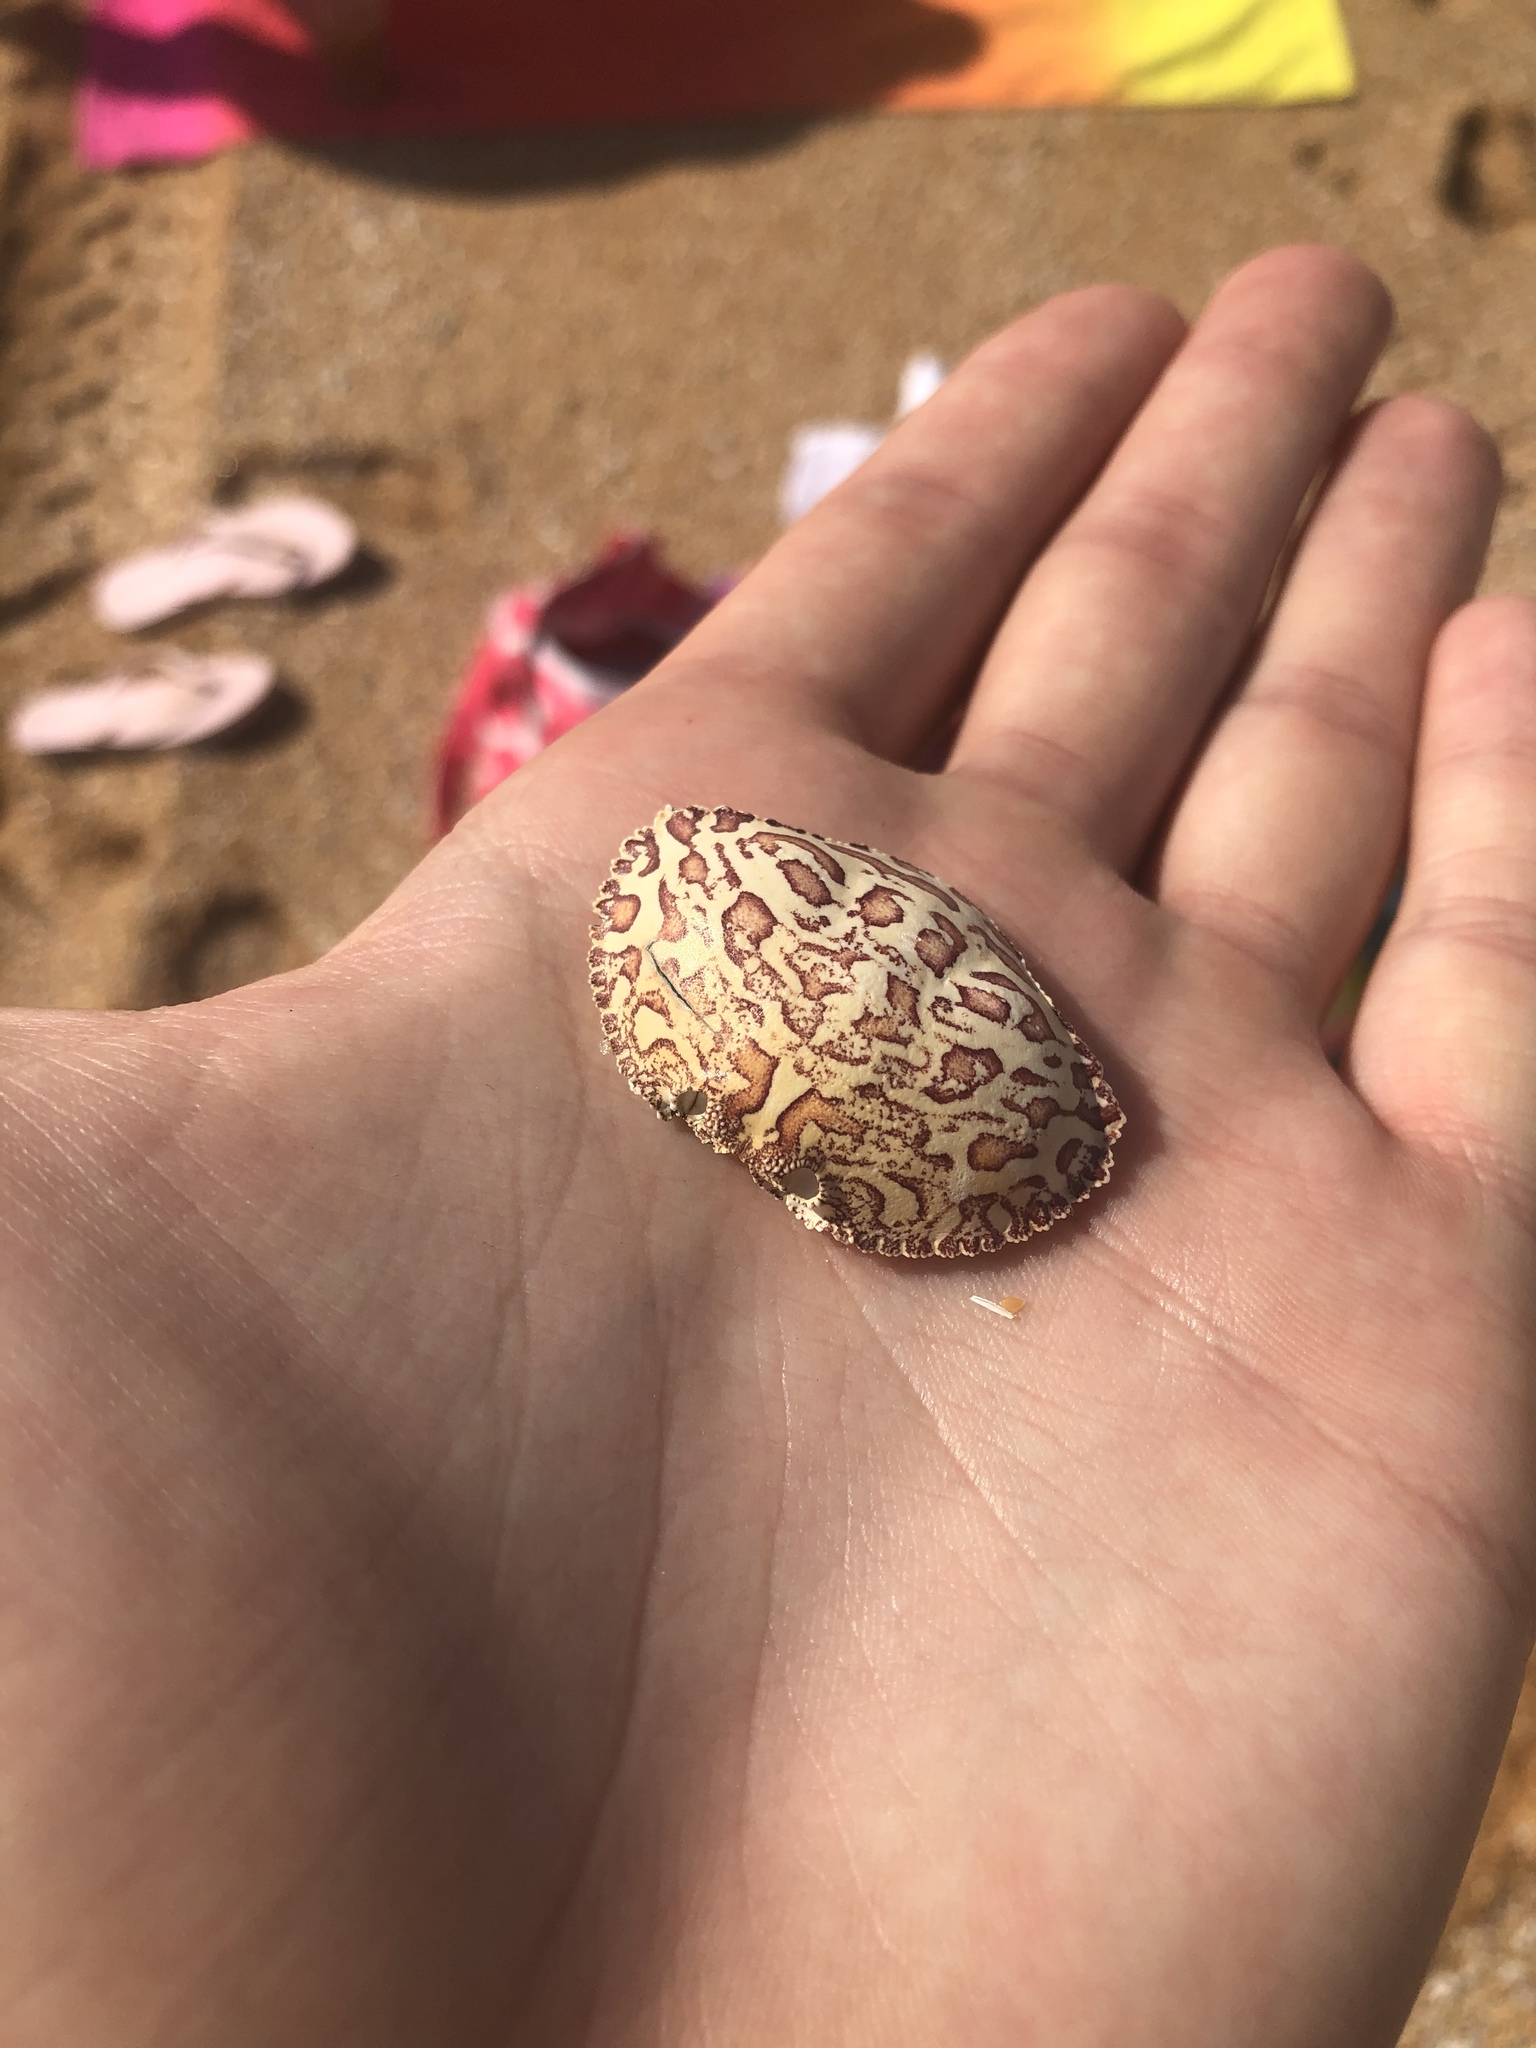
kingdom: Animalia
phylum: Arthropoda
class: Malacostraca
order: Decapoda
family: Aethridae
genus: Hepatus
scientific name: Hepatus epheliticus
